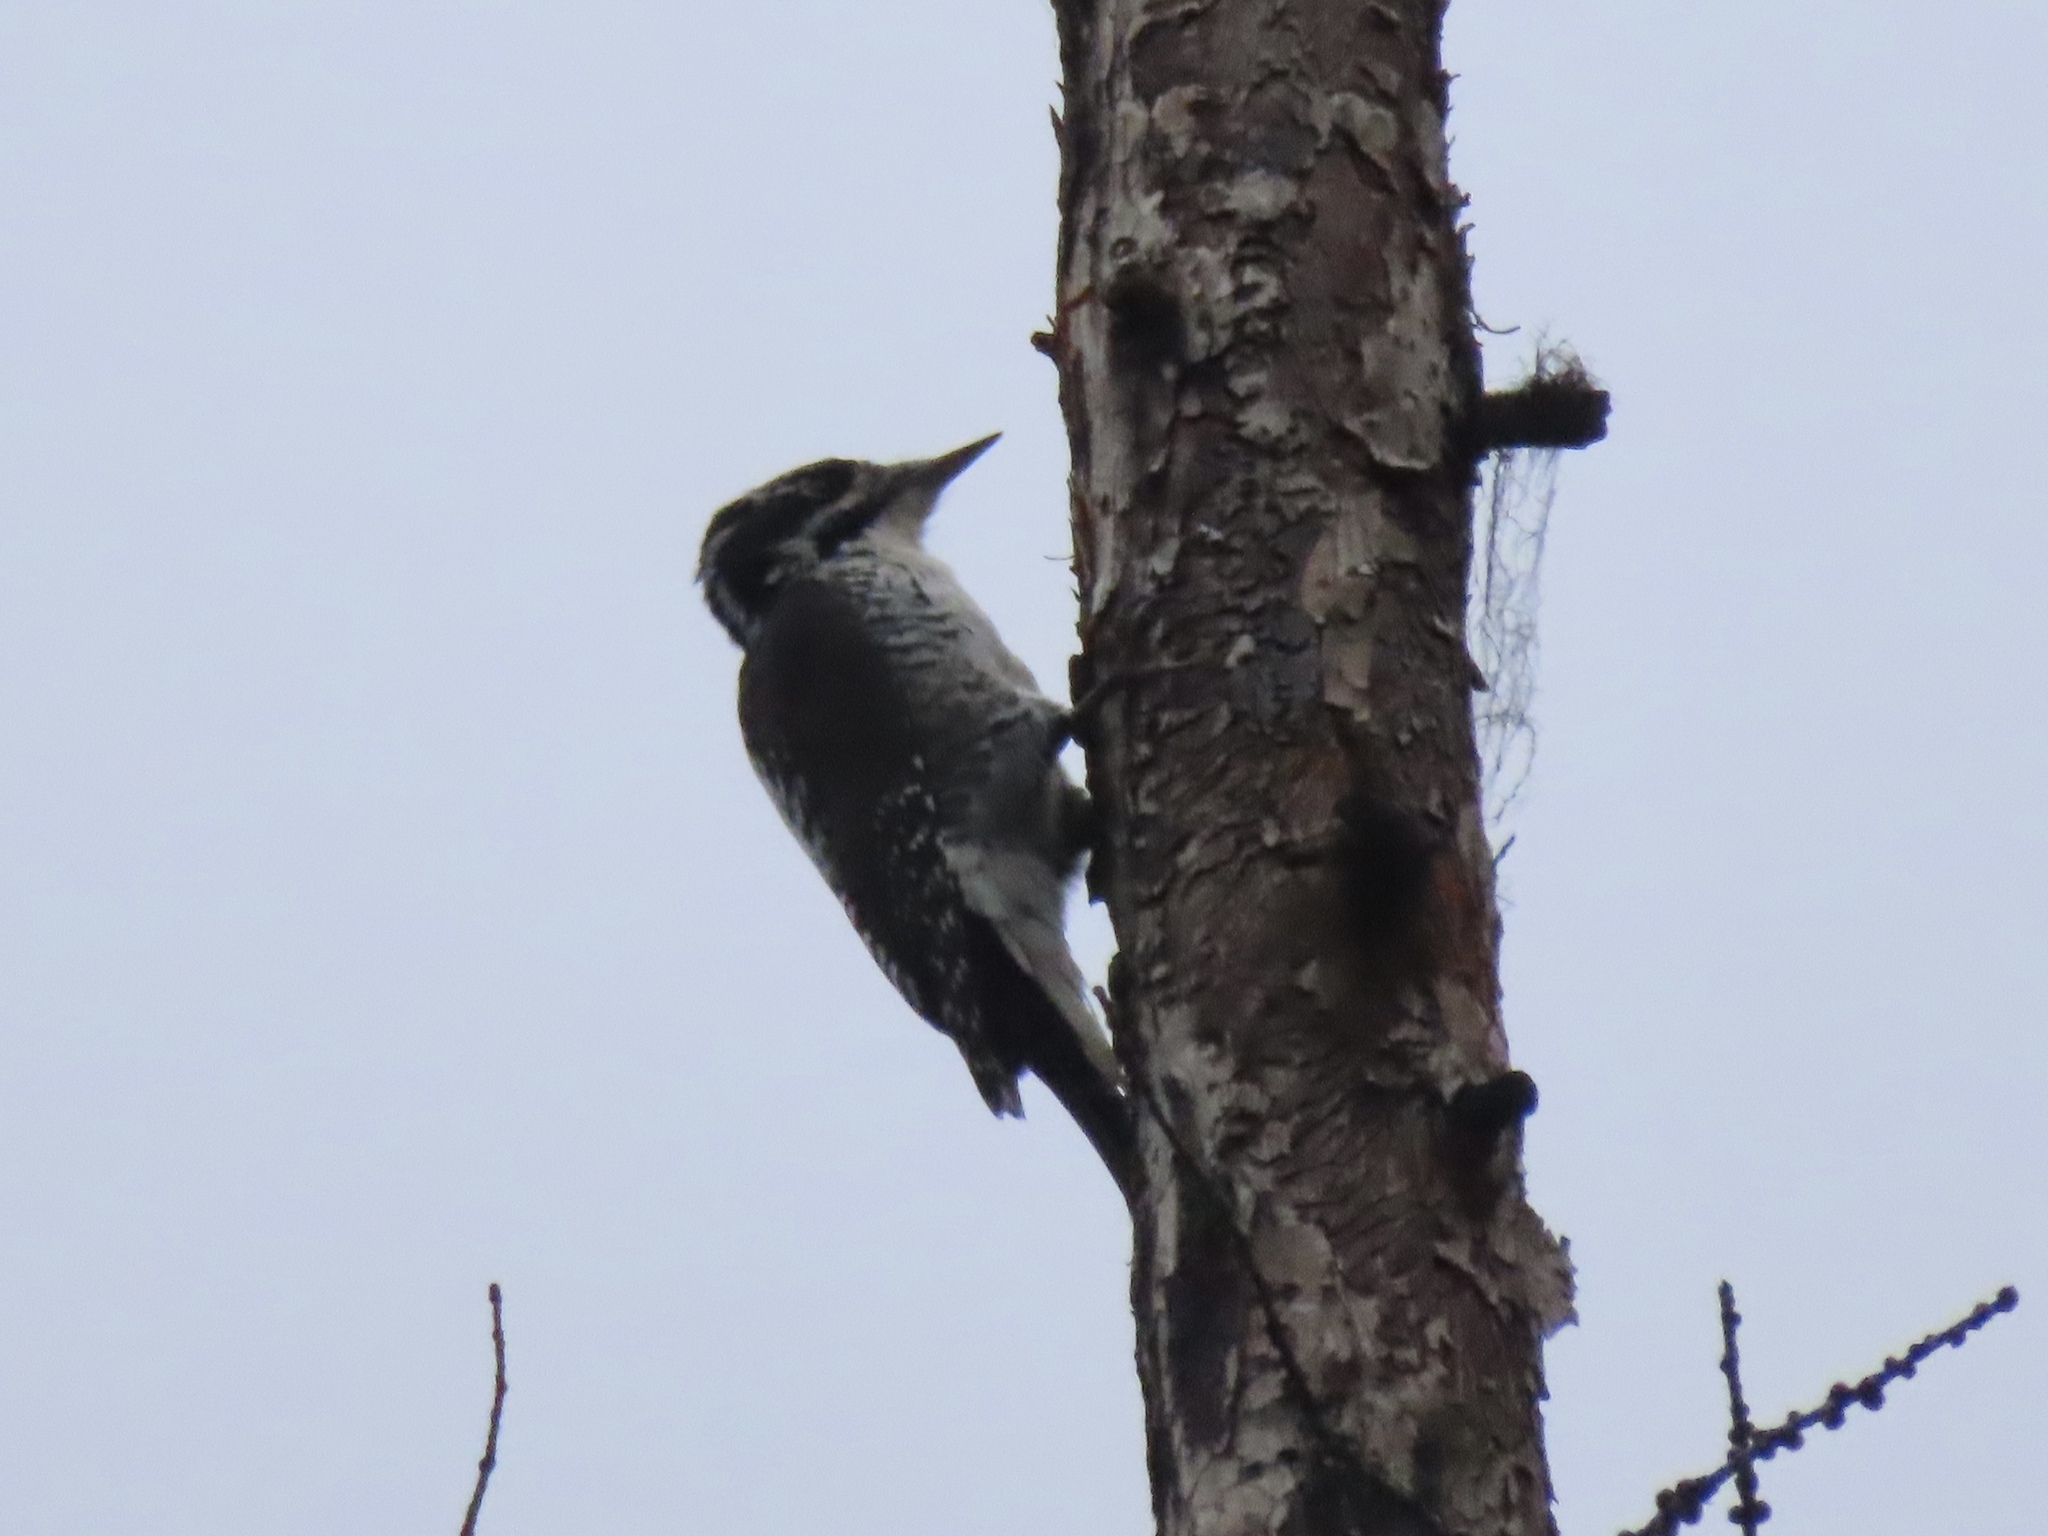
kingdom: Animalia
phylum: Chordata
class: Aves
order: Piciformes
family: Picidae
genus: Picoides
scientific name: Picoides dorsalis
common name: American three-toed woodpecker
